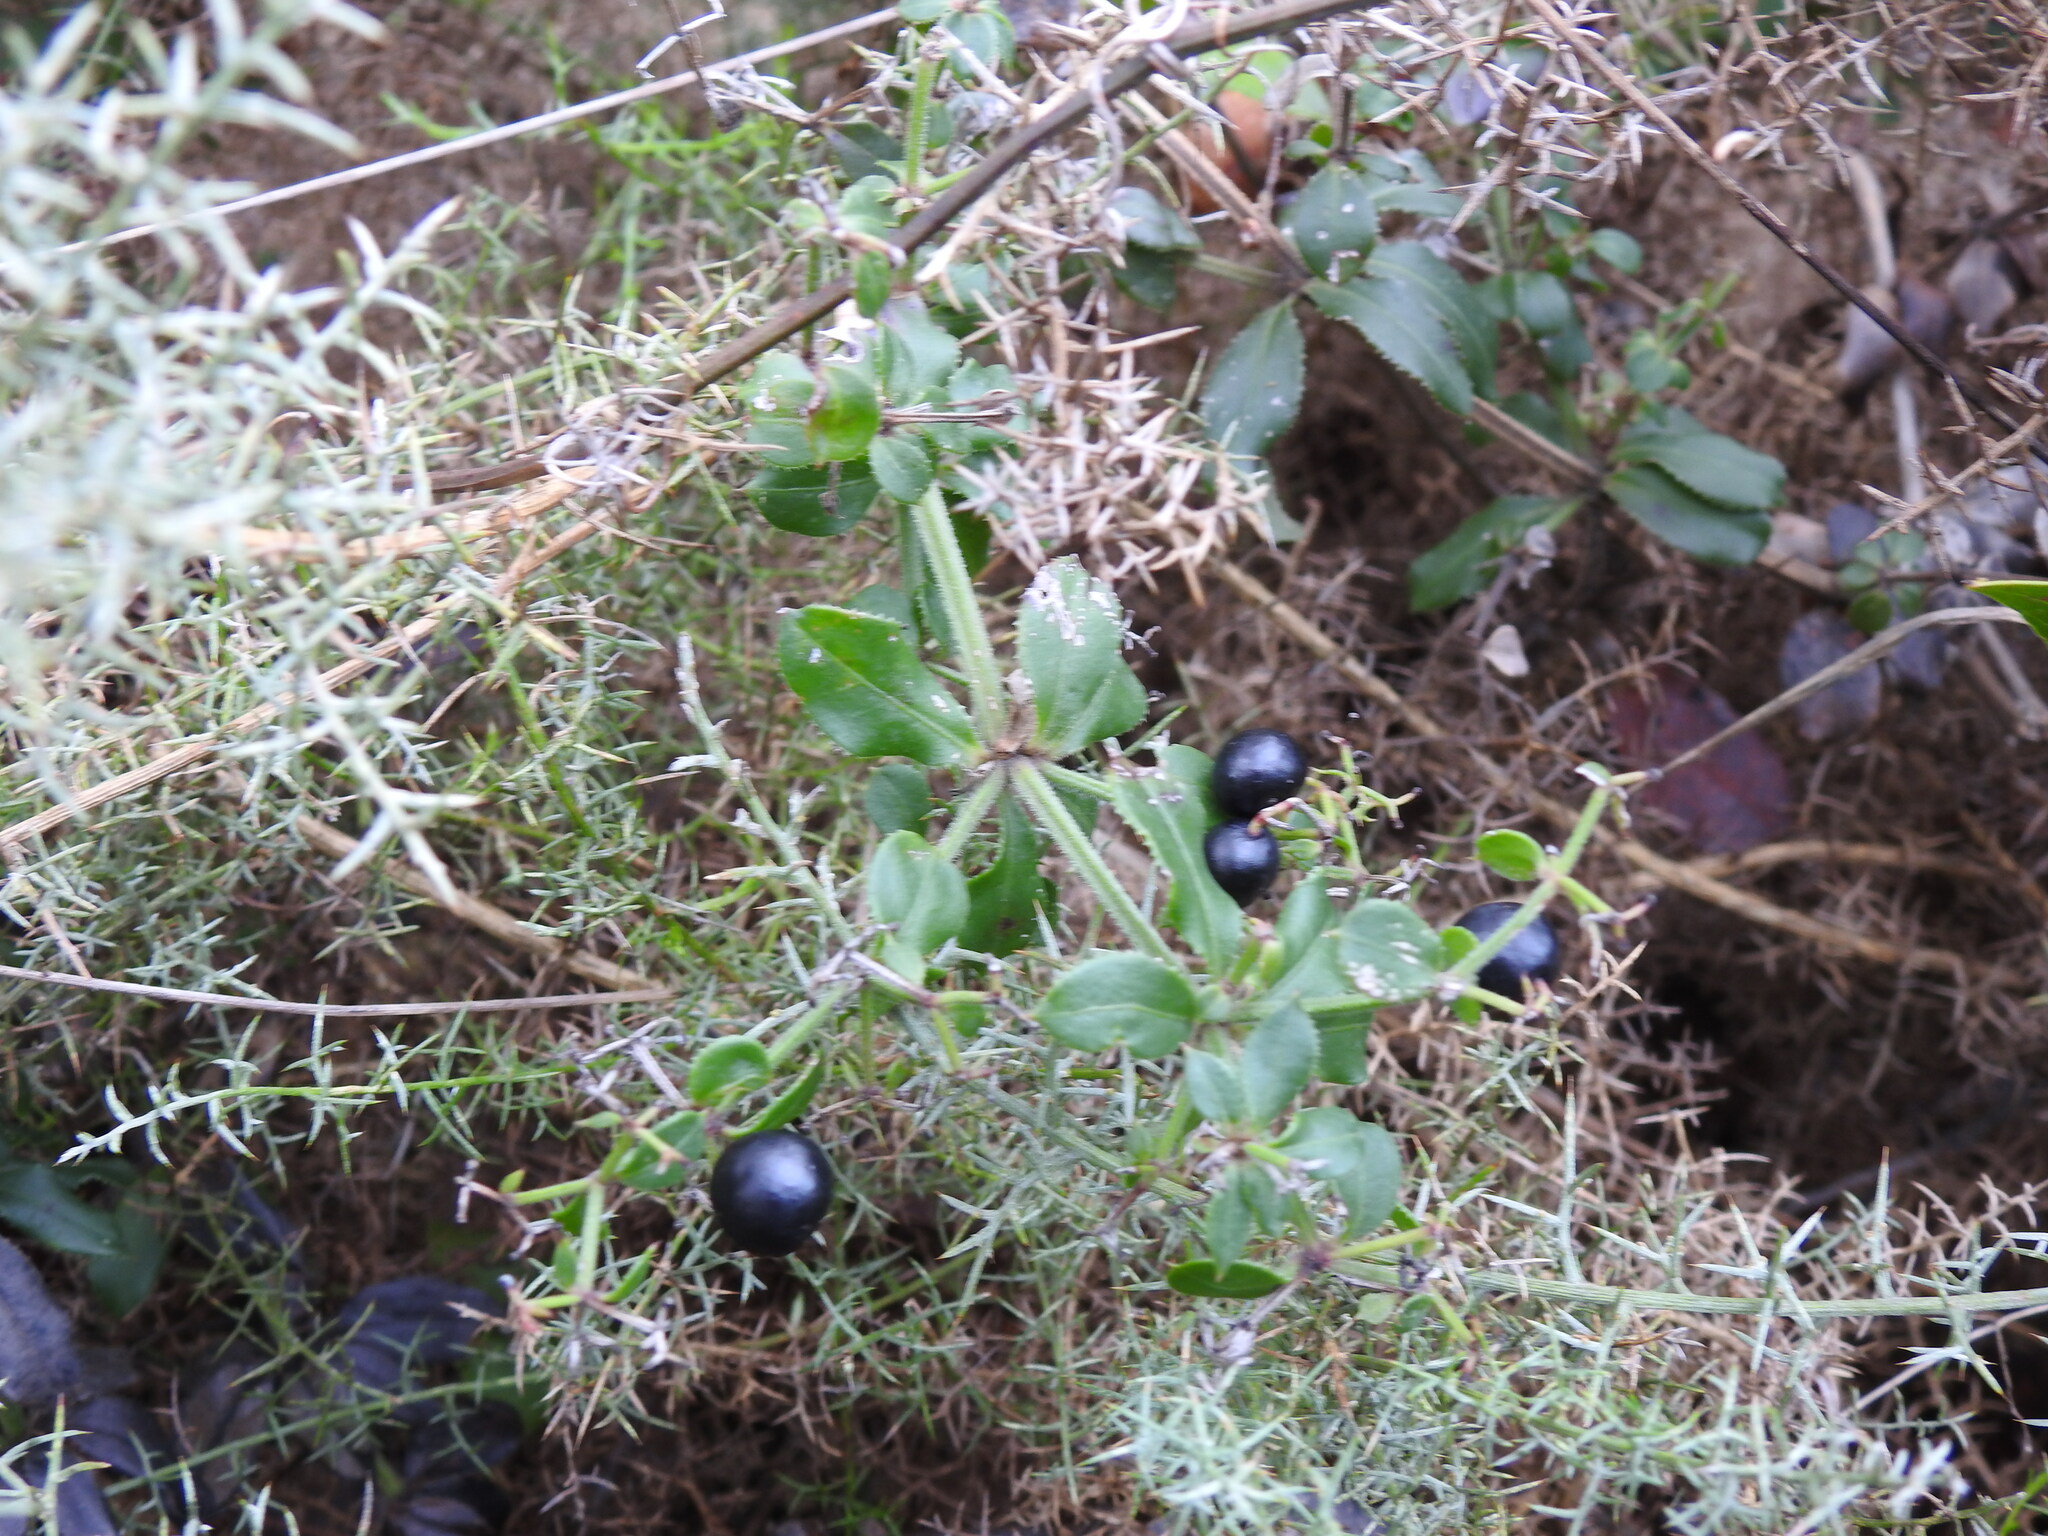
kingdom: Plantae
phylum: Tracheophyta
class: Magnoliopsida
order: Gentianales
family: Rubiaceae
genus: Rubia
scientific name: Rubia peregrina
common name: Wild madder
